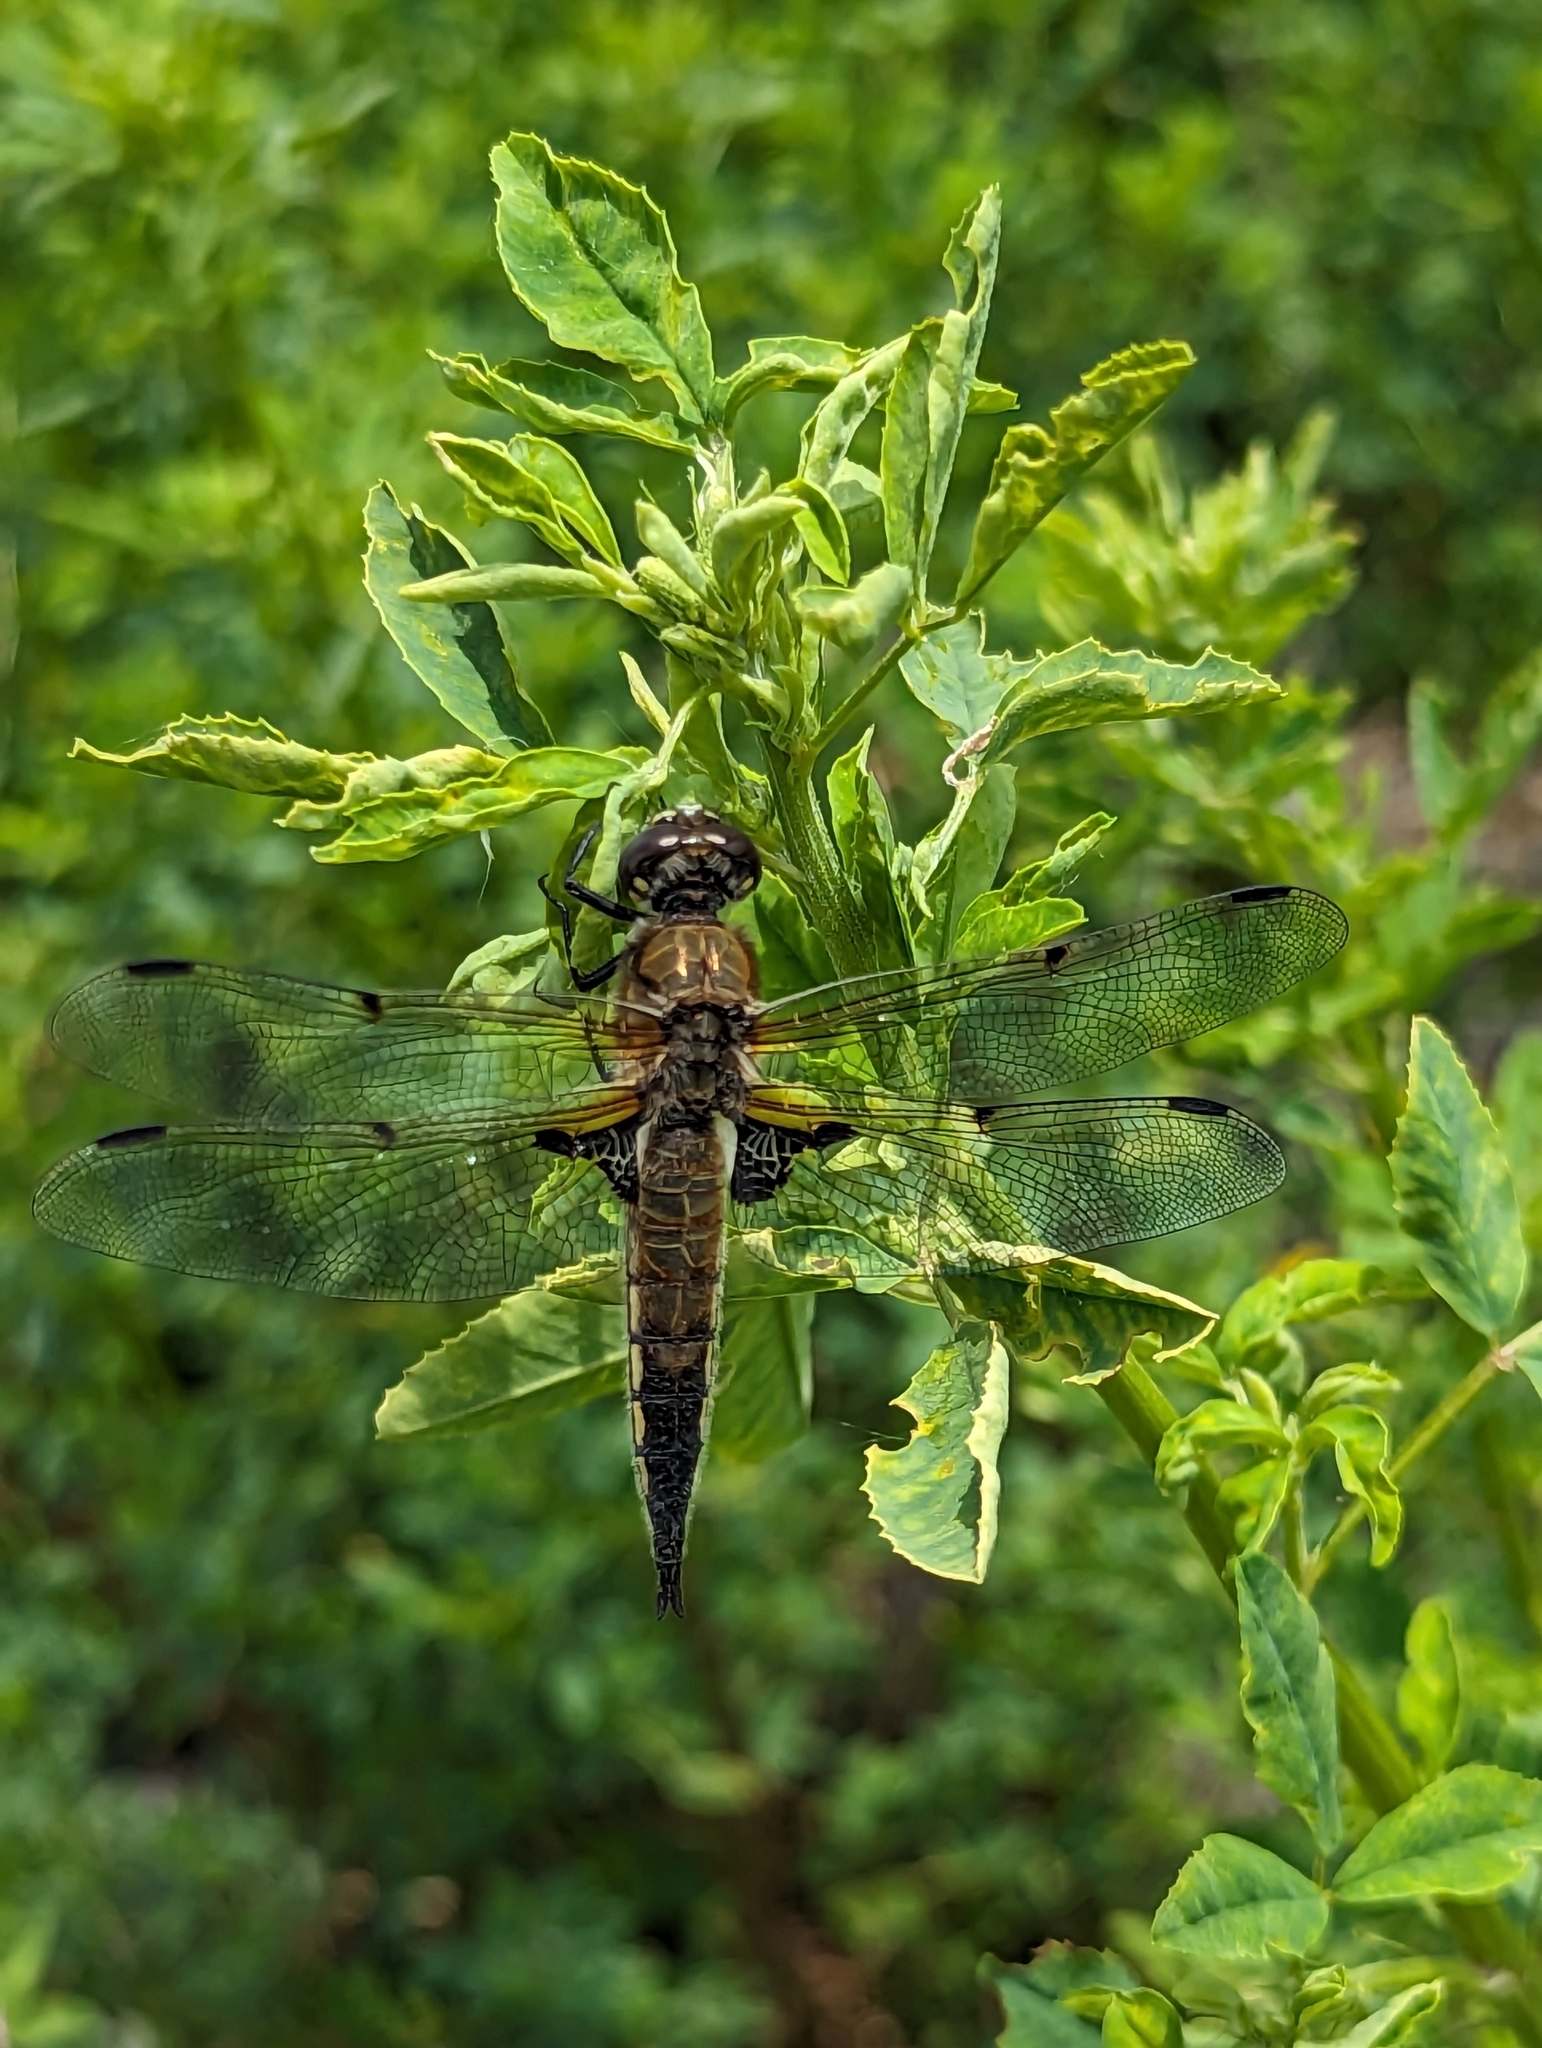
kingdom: Animalia
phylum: Arthropoda
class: Insecta
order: Odonata
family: Libellulidae
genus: Libellula
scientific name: Libellula quadrimaculata
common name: Four-spotted chaser
